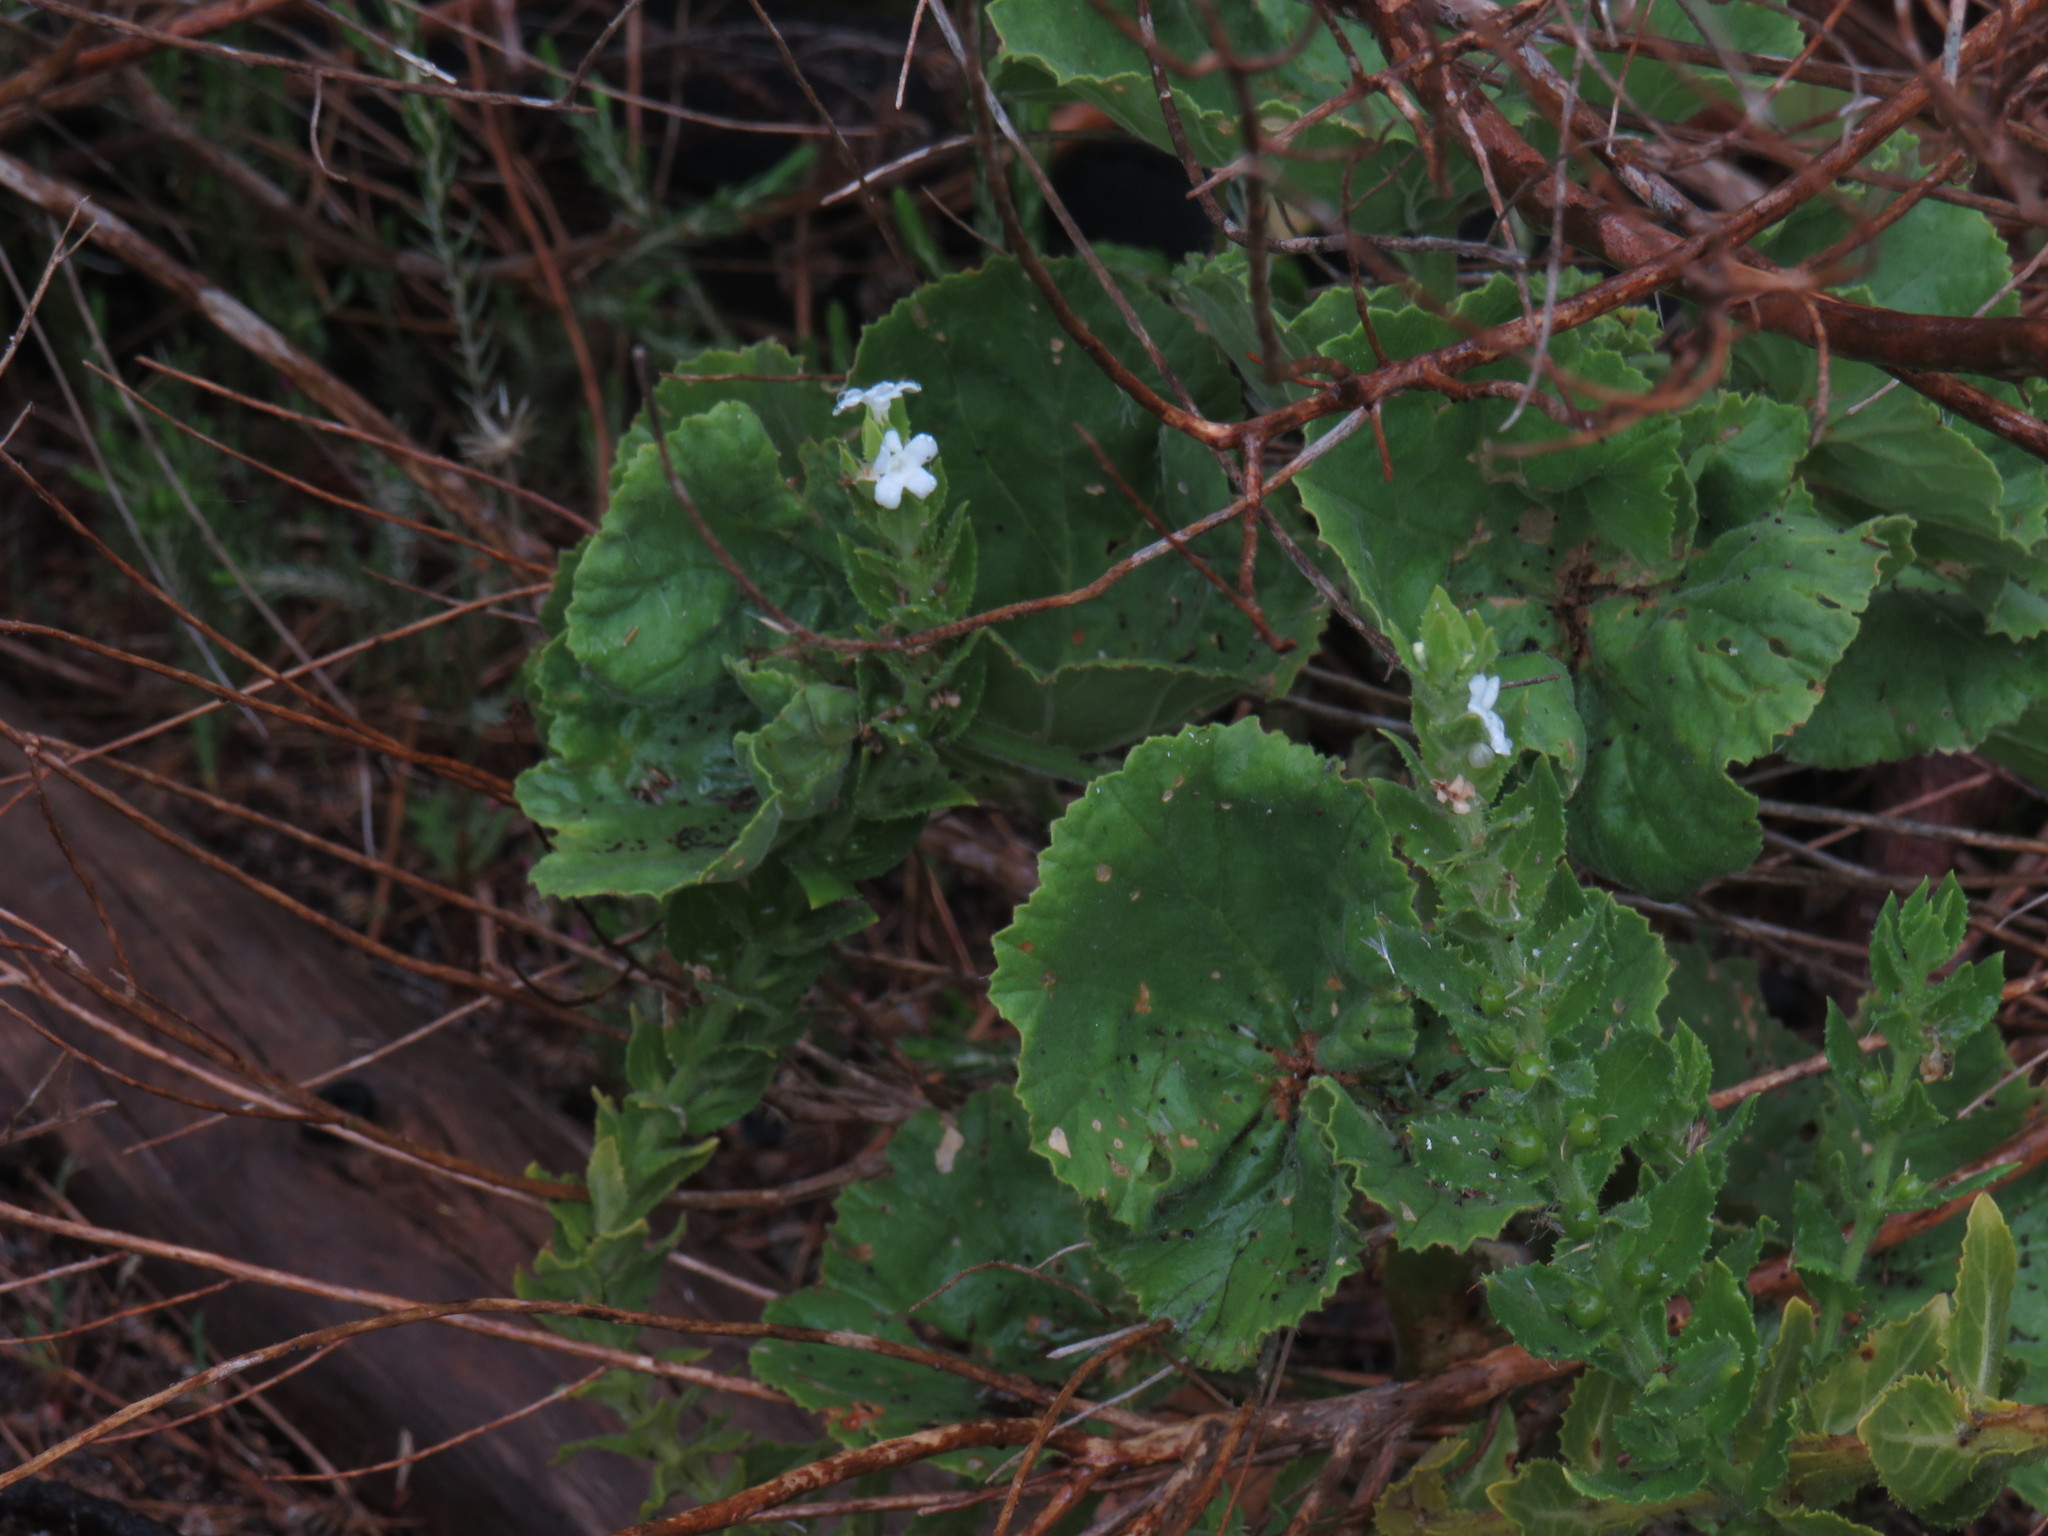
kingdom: Plantae
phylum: Tracheophyta
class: Magnoliopsida
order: Lamiales
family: Scrophulariaceae
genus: Oftia
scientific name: Oftia africana
